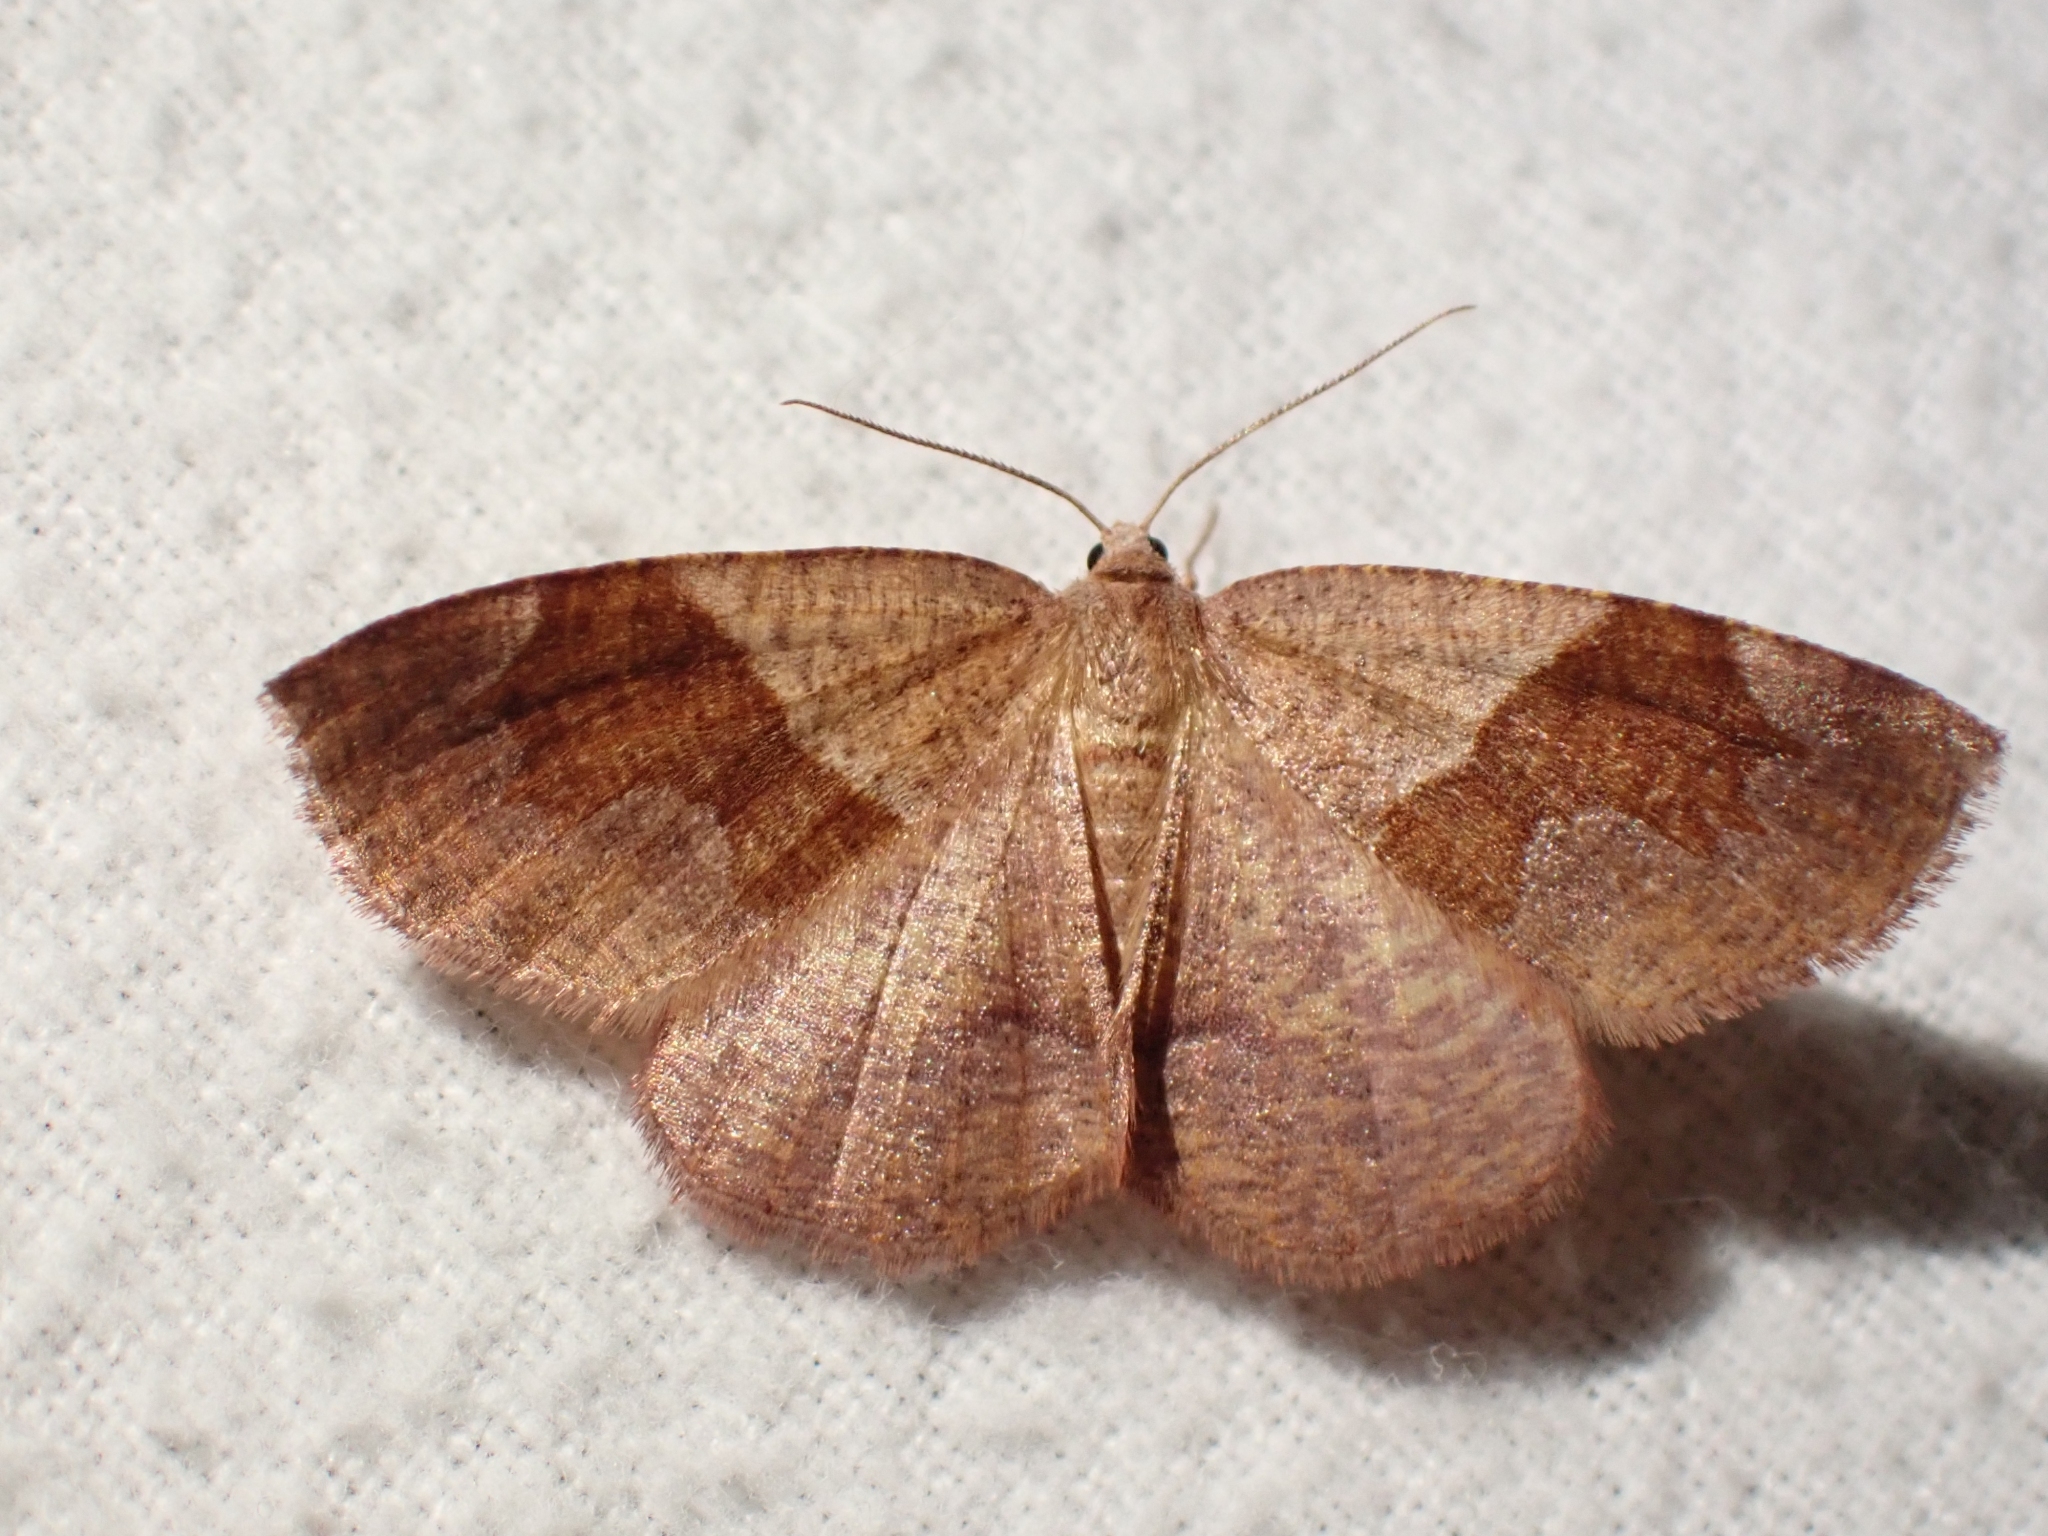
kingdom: Animalia
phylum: Arthropoda
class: Insecta
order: Lepidoptera
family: Geometridae
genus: Plagodis
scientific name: Plagodis pulveraria
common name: Barred umber
